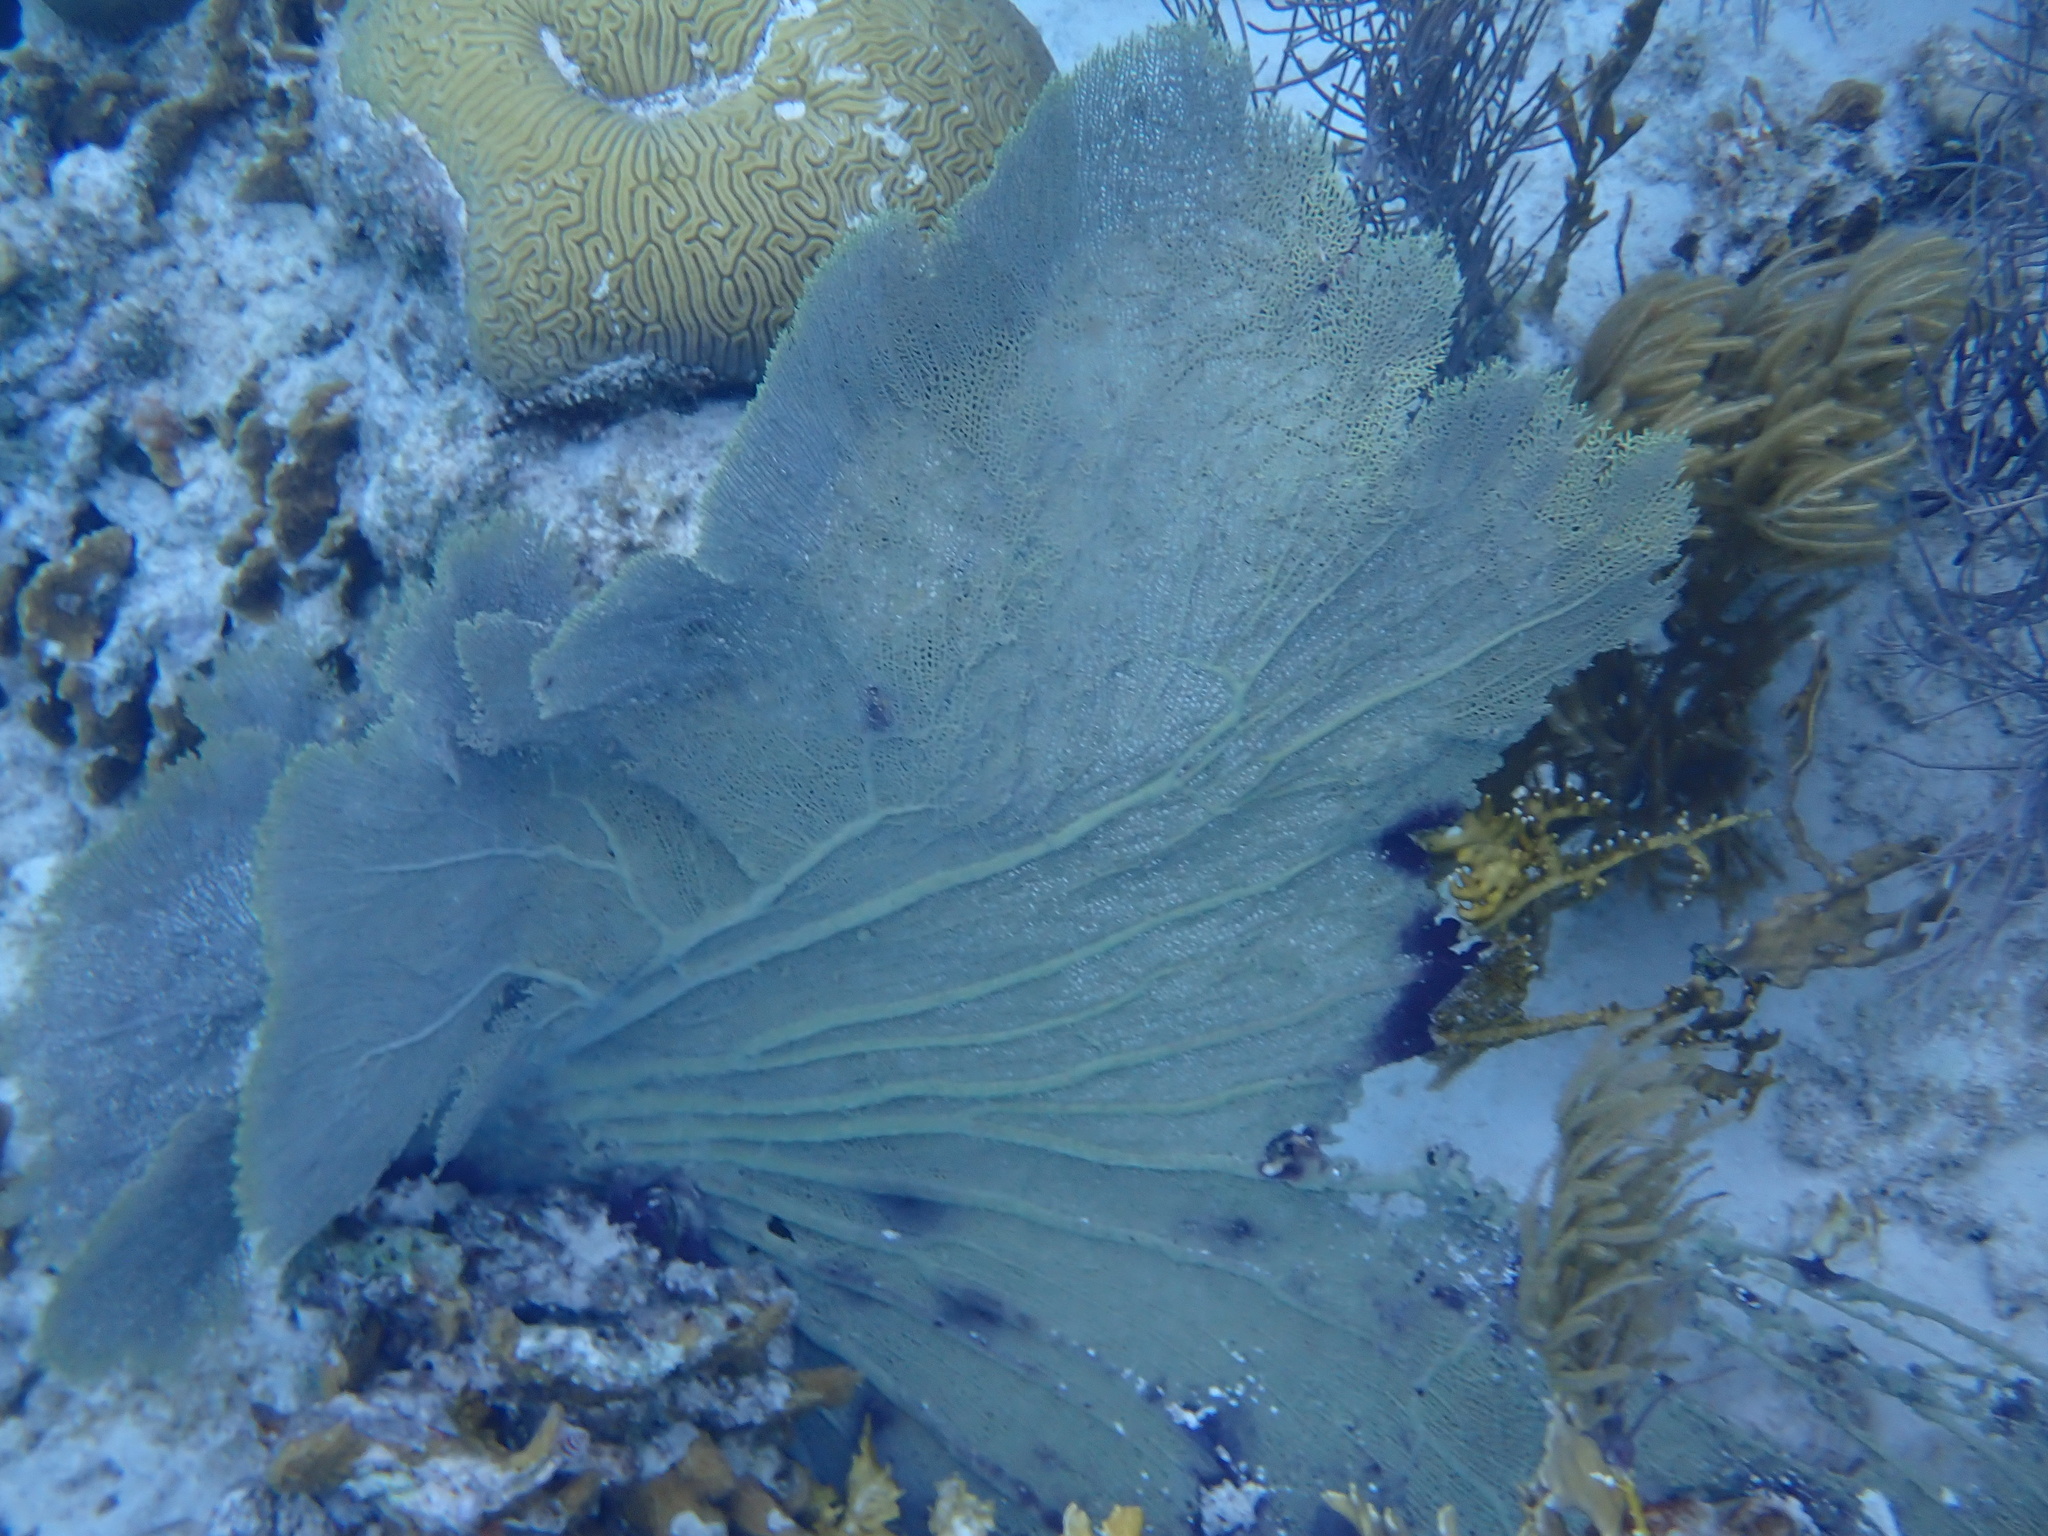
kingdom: Animalia
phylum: Cnidaria
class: Anthozoa
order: Malacalcyonacea
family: Gorgoniidae
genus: Gorgonia
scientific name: Gorgonia ventalina
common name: Common sea fan
